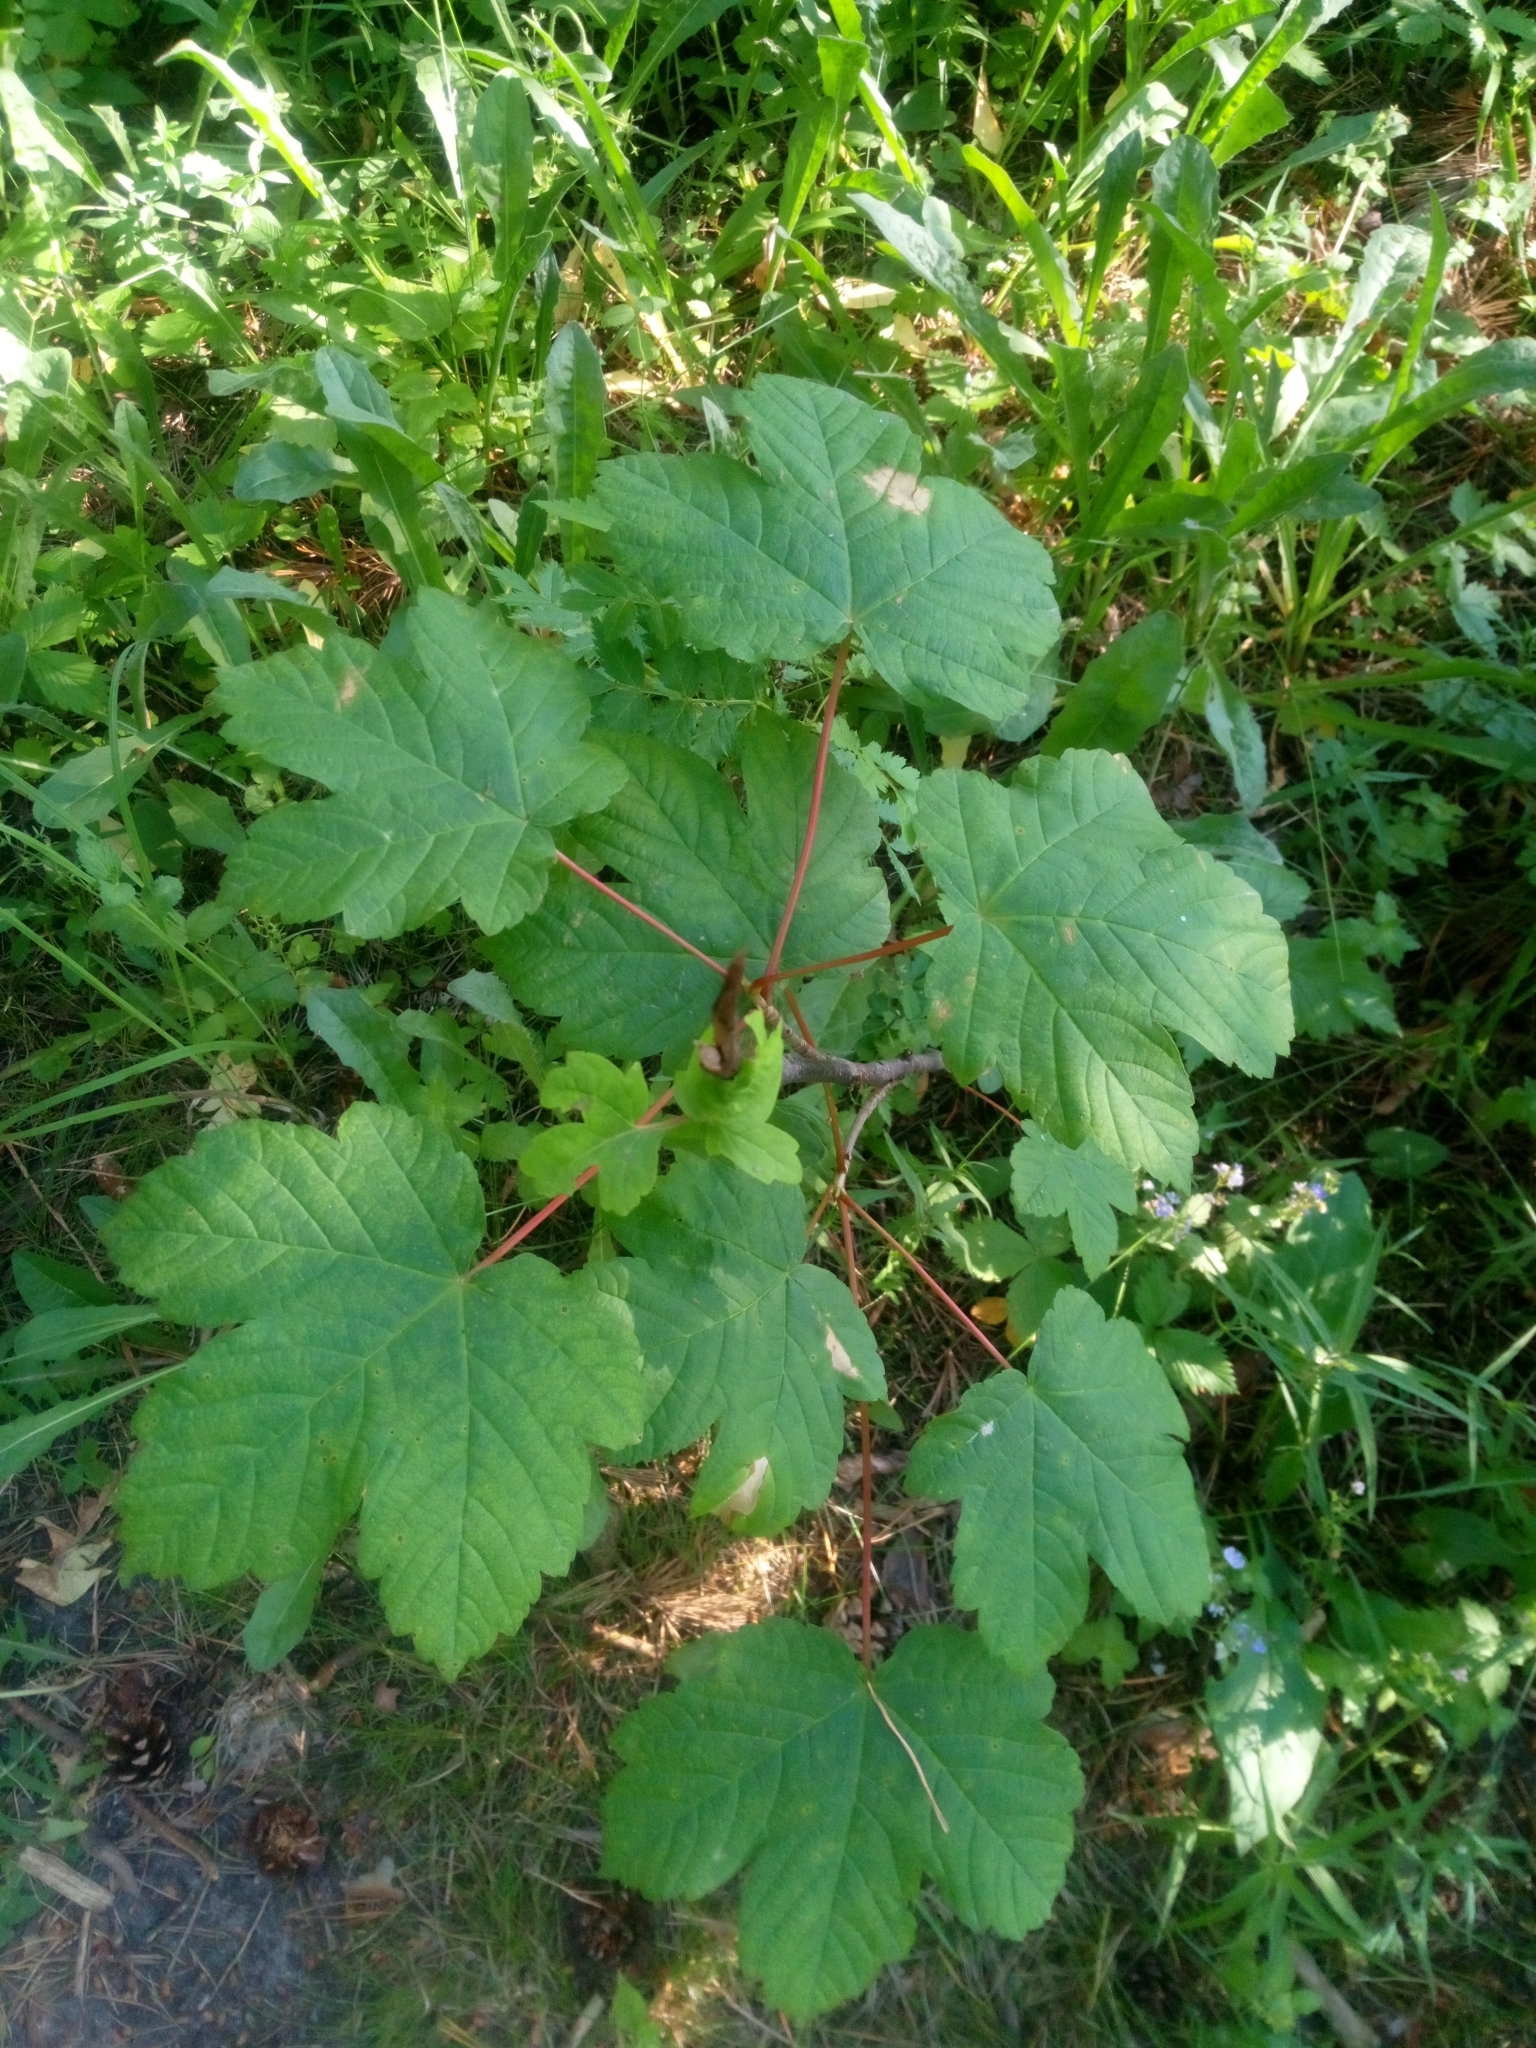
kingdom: Plantae
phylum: Tracheophyta
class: Magnoliopsida
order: Sapindales
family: Sapindaceae
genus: Acer
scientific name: Acer pseudoplatanus
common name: Sycamore
